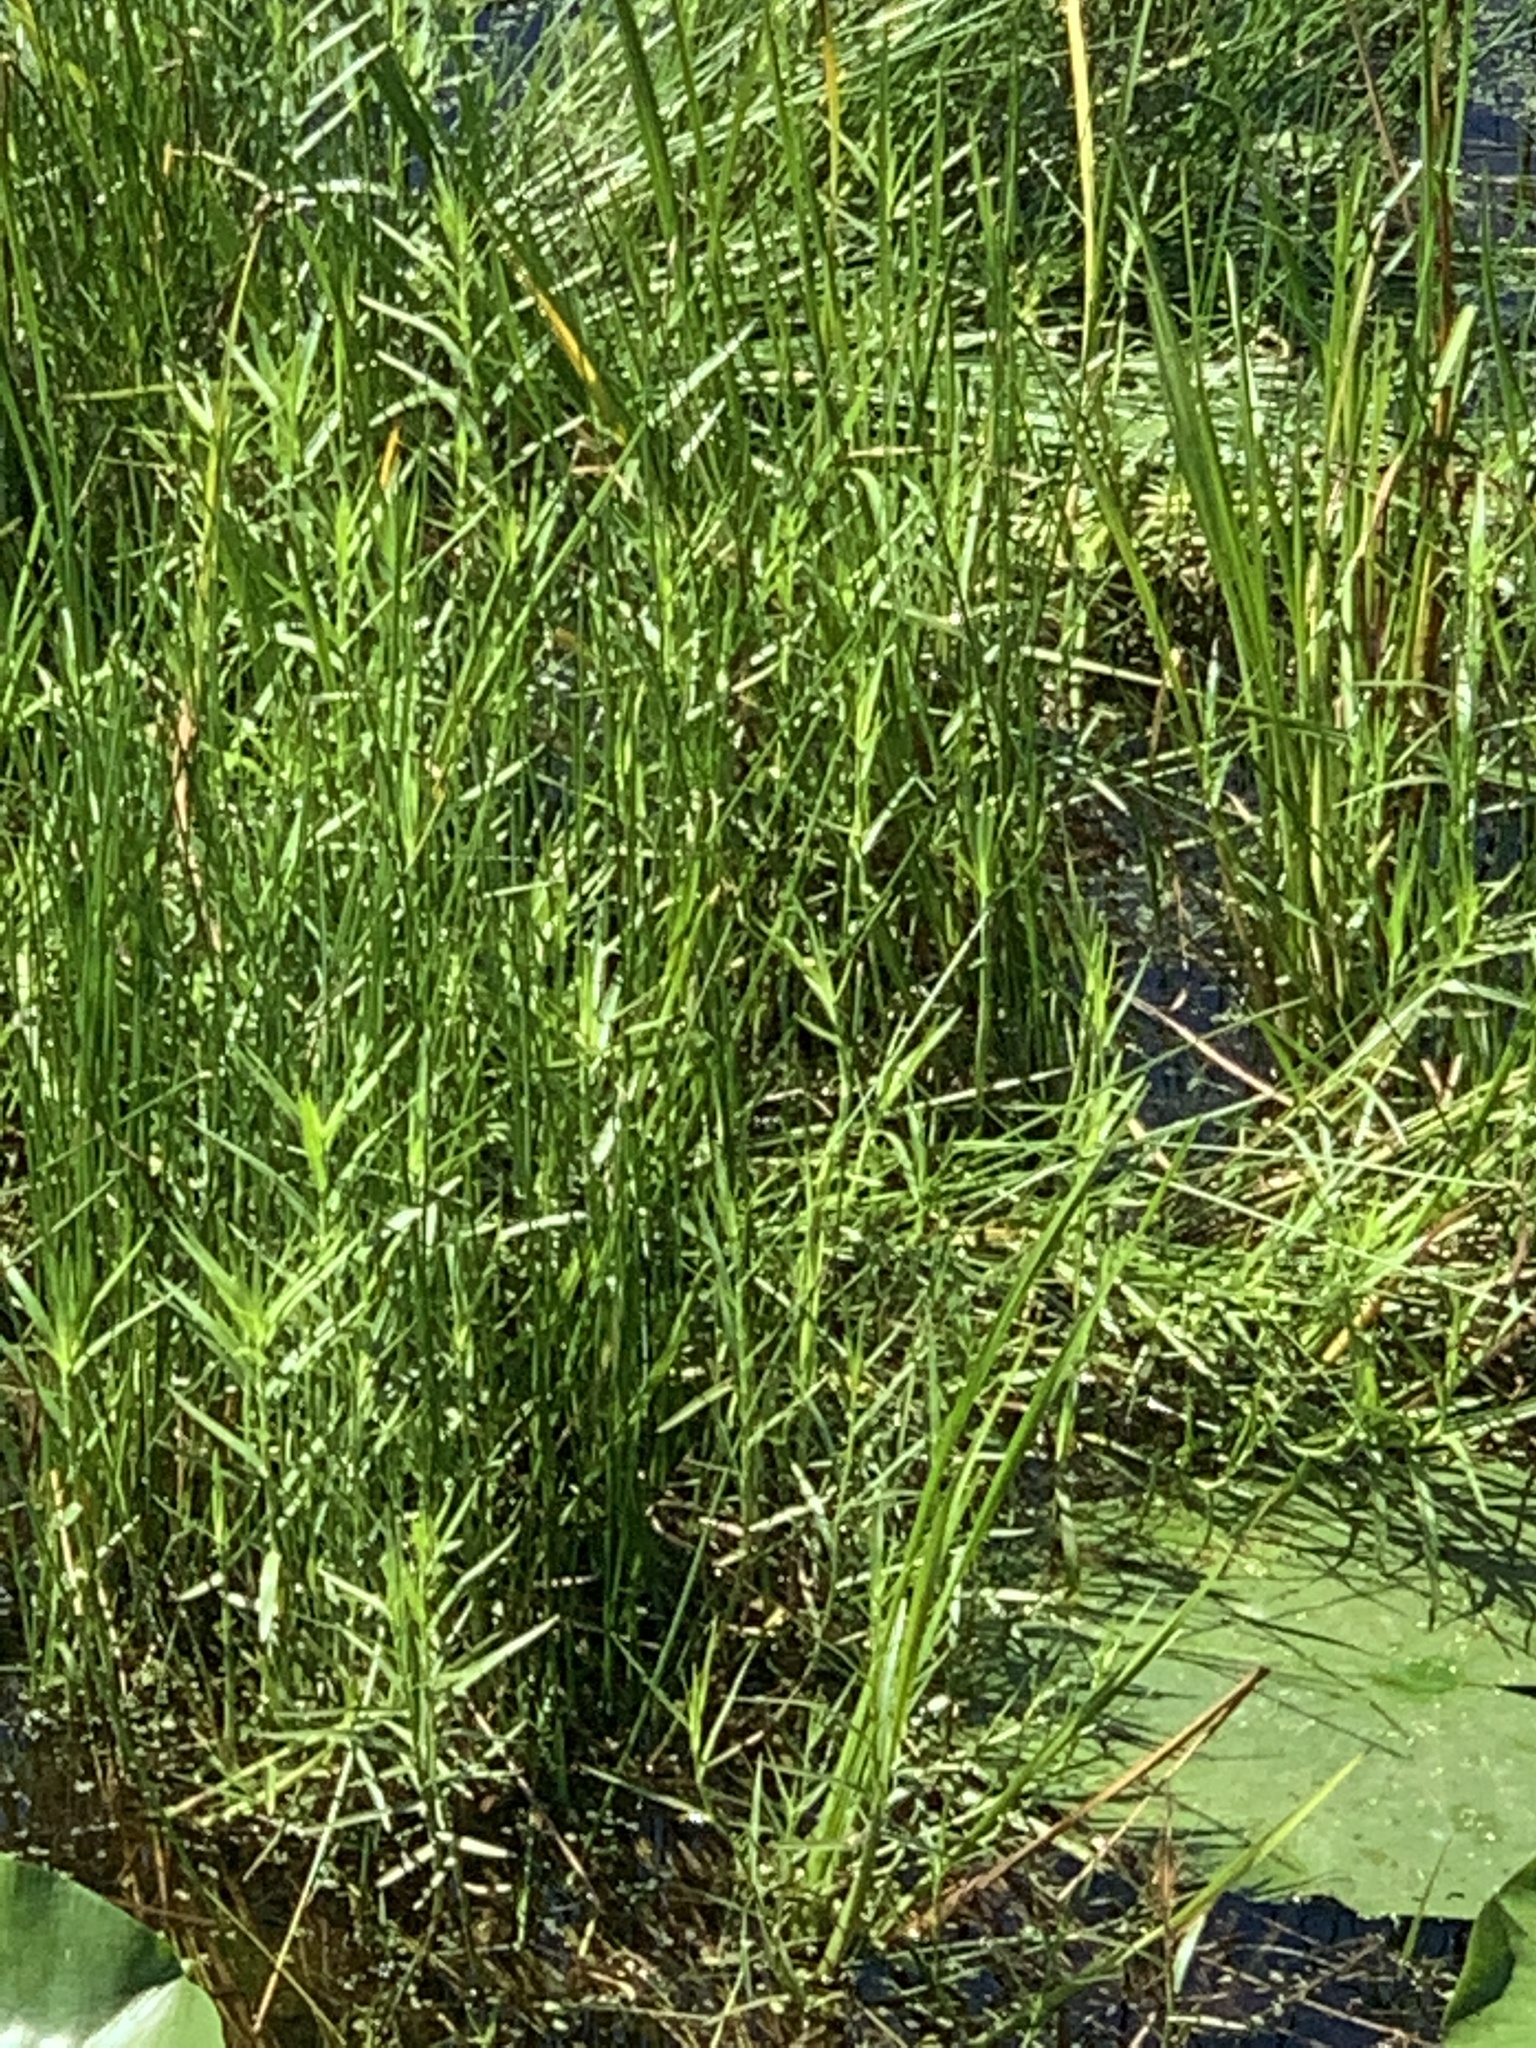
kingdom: Plantae
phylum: Tracheophyta
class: Liliopsida
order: Poales
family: Cyperaceae
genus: Dulichium
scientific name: Dulichium arundinaceum
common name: Three-way sedge
